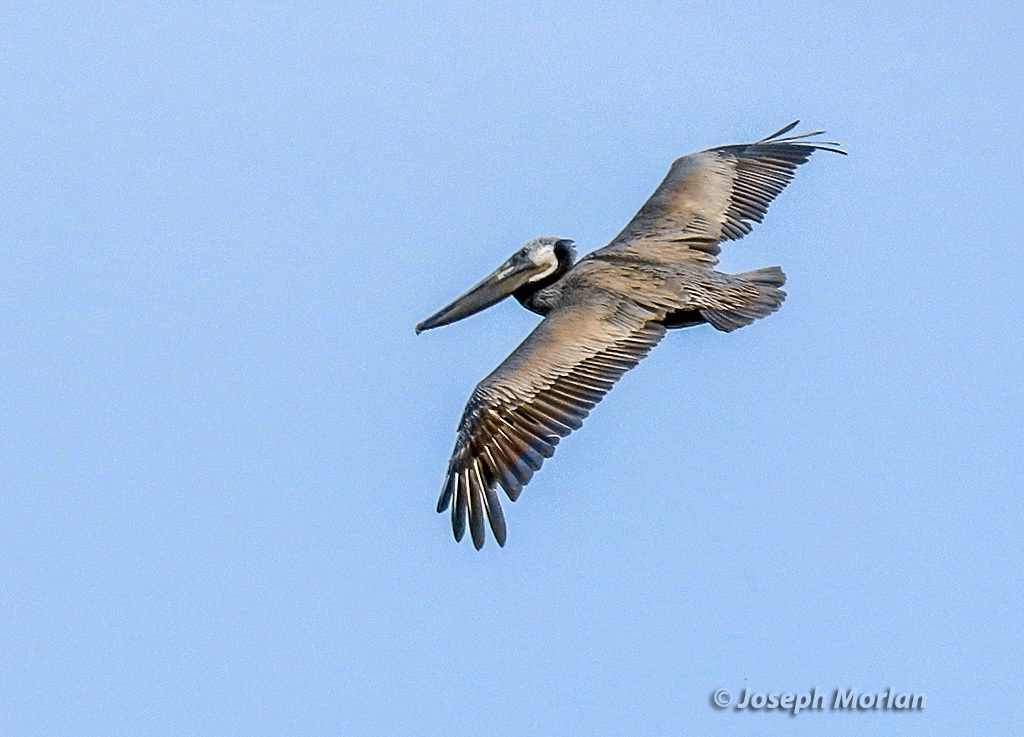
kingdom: Animalia
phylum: Chordata
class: Aves
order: Pelecaniformes
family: Pelecanidae
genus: Pelecanus
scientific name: Pelecanus occidentalis
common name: Brown pelican
